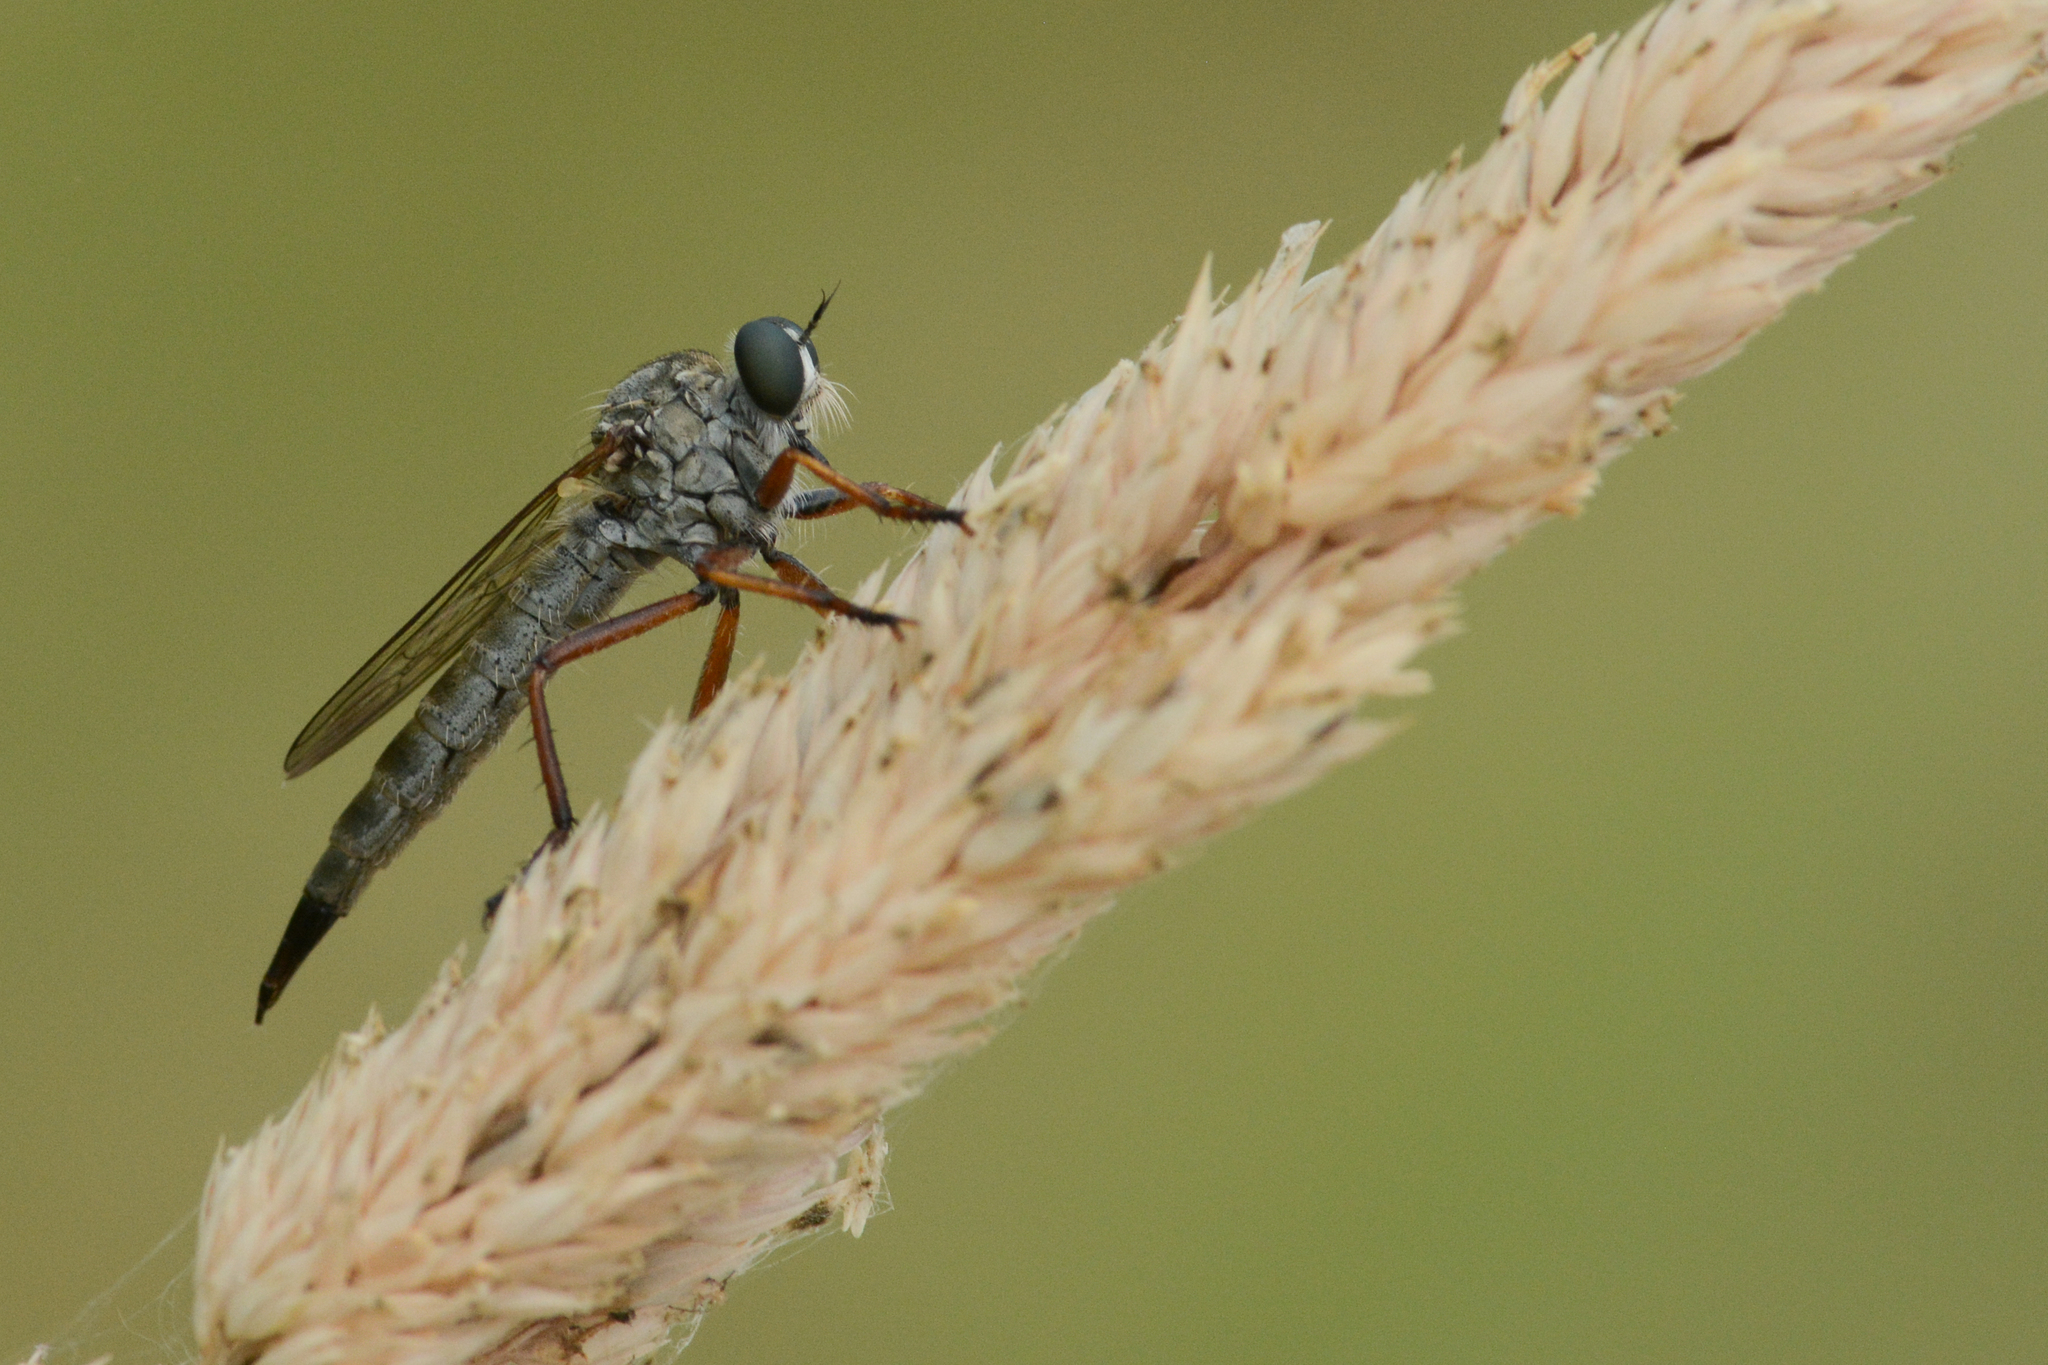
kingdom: Animalia
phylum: Arthropoda
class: Insecta
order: Diptera
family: Asilidae
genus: Neomochtherus
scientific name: Neomochtherus willistoni
